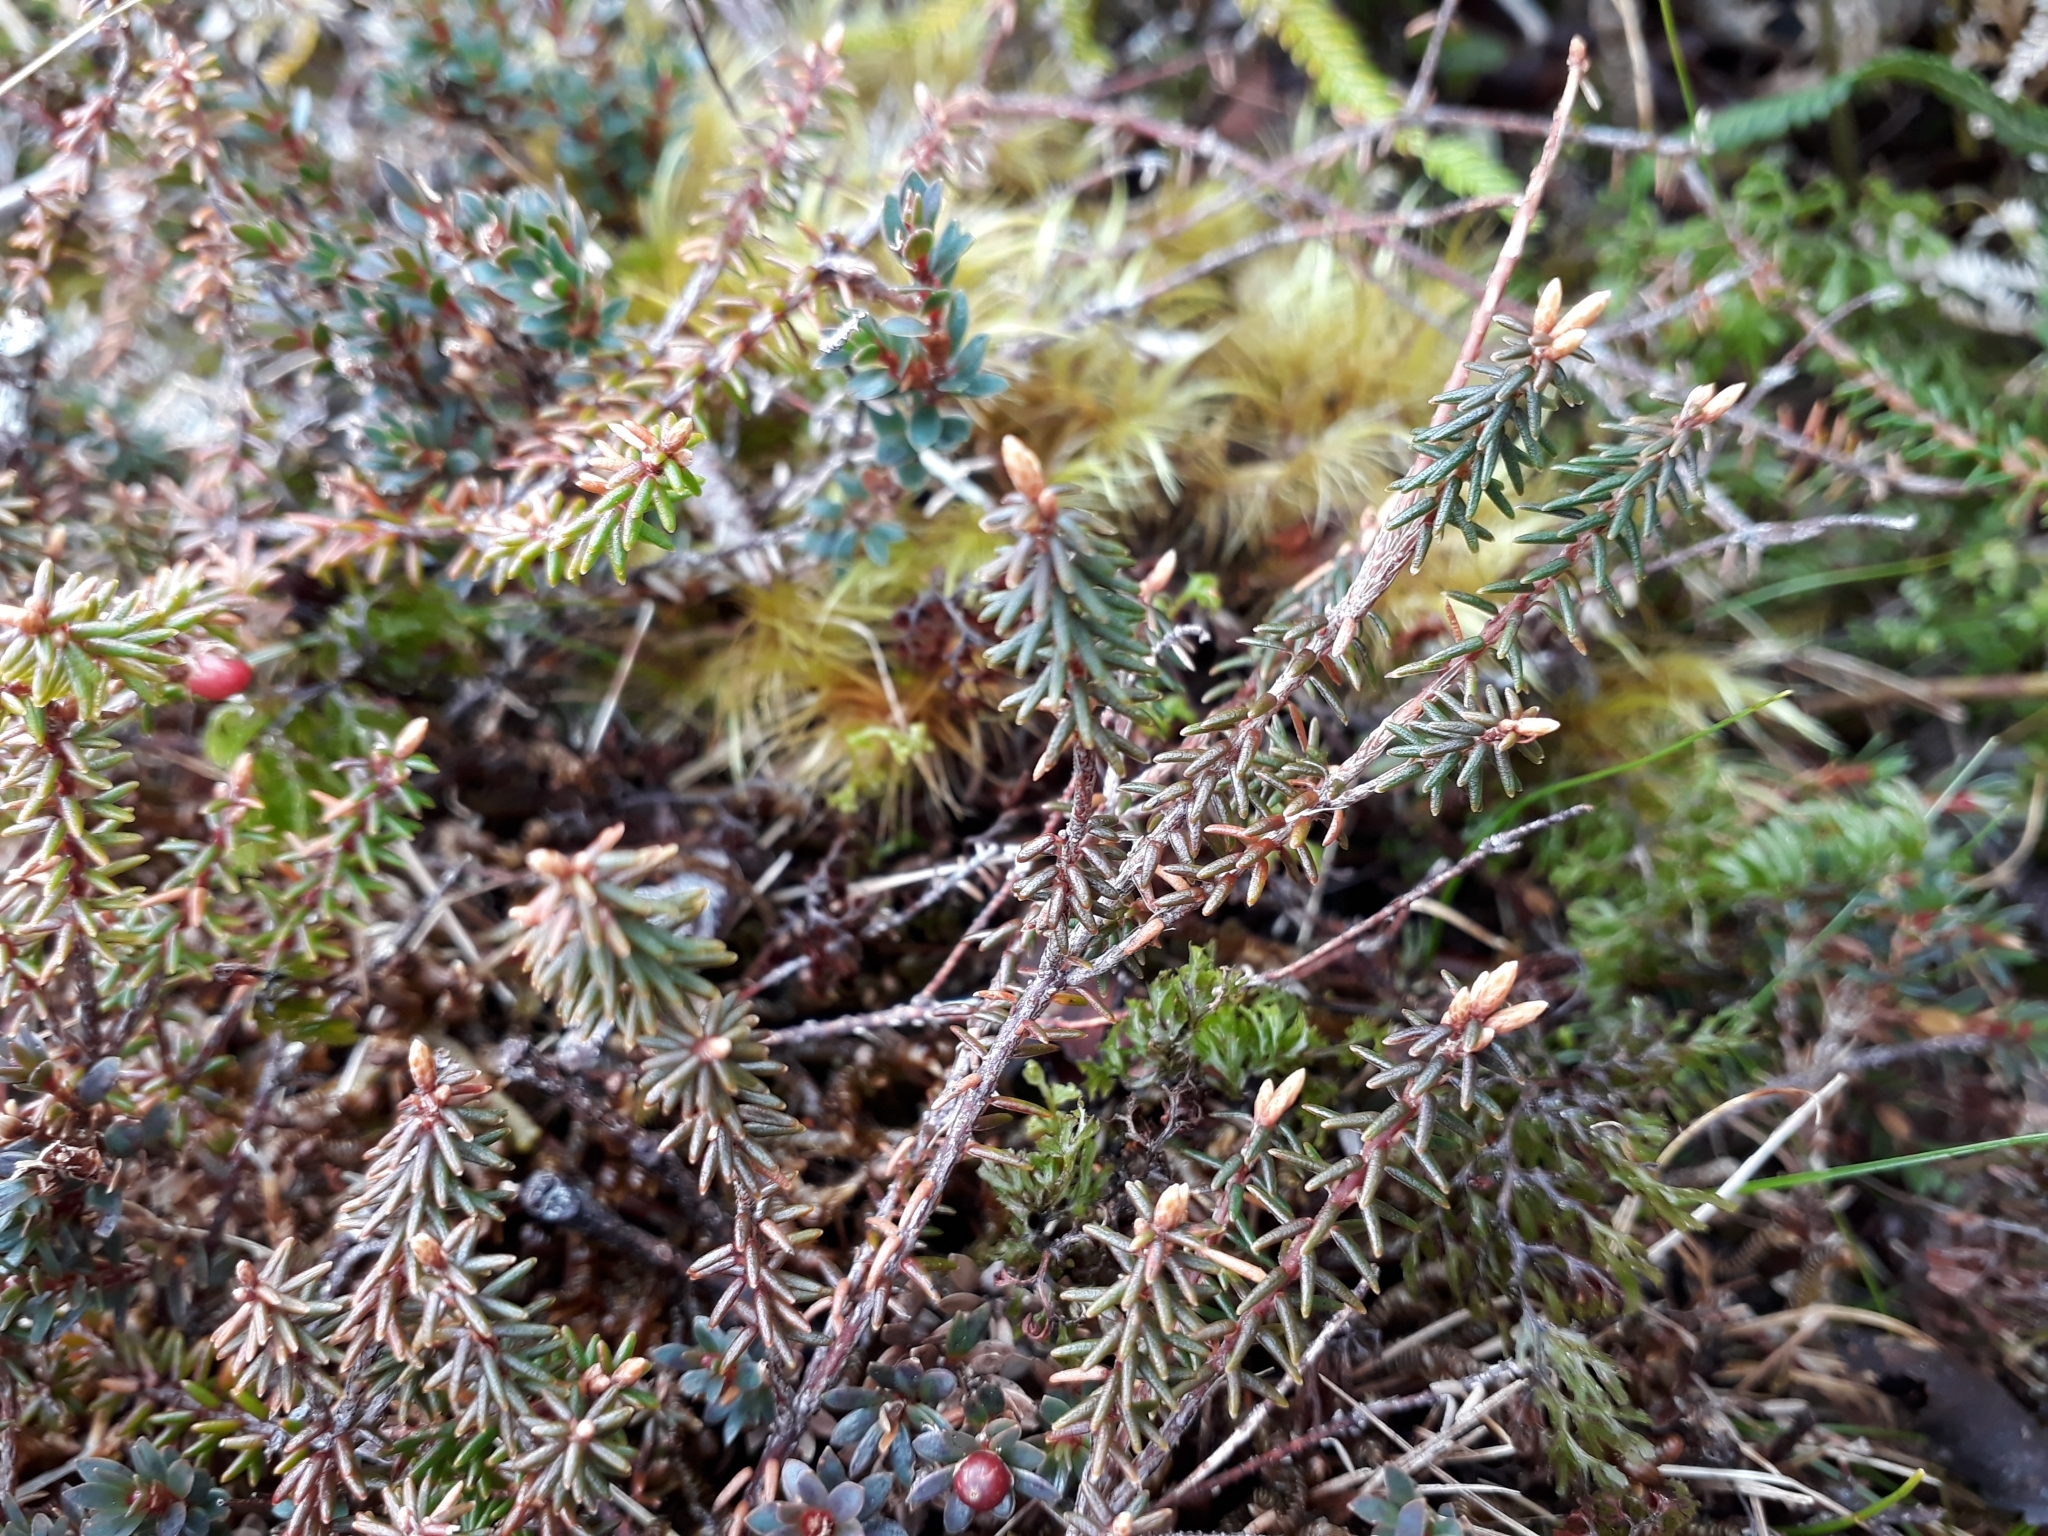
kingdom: Plantae
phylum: Tracheophyta
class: Magnoliopsida
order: Ericales
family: Ericaceae
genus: Androstoma
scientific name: Androstoma empetrifolia
